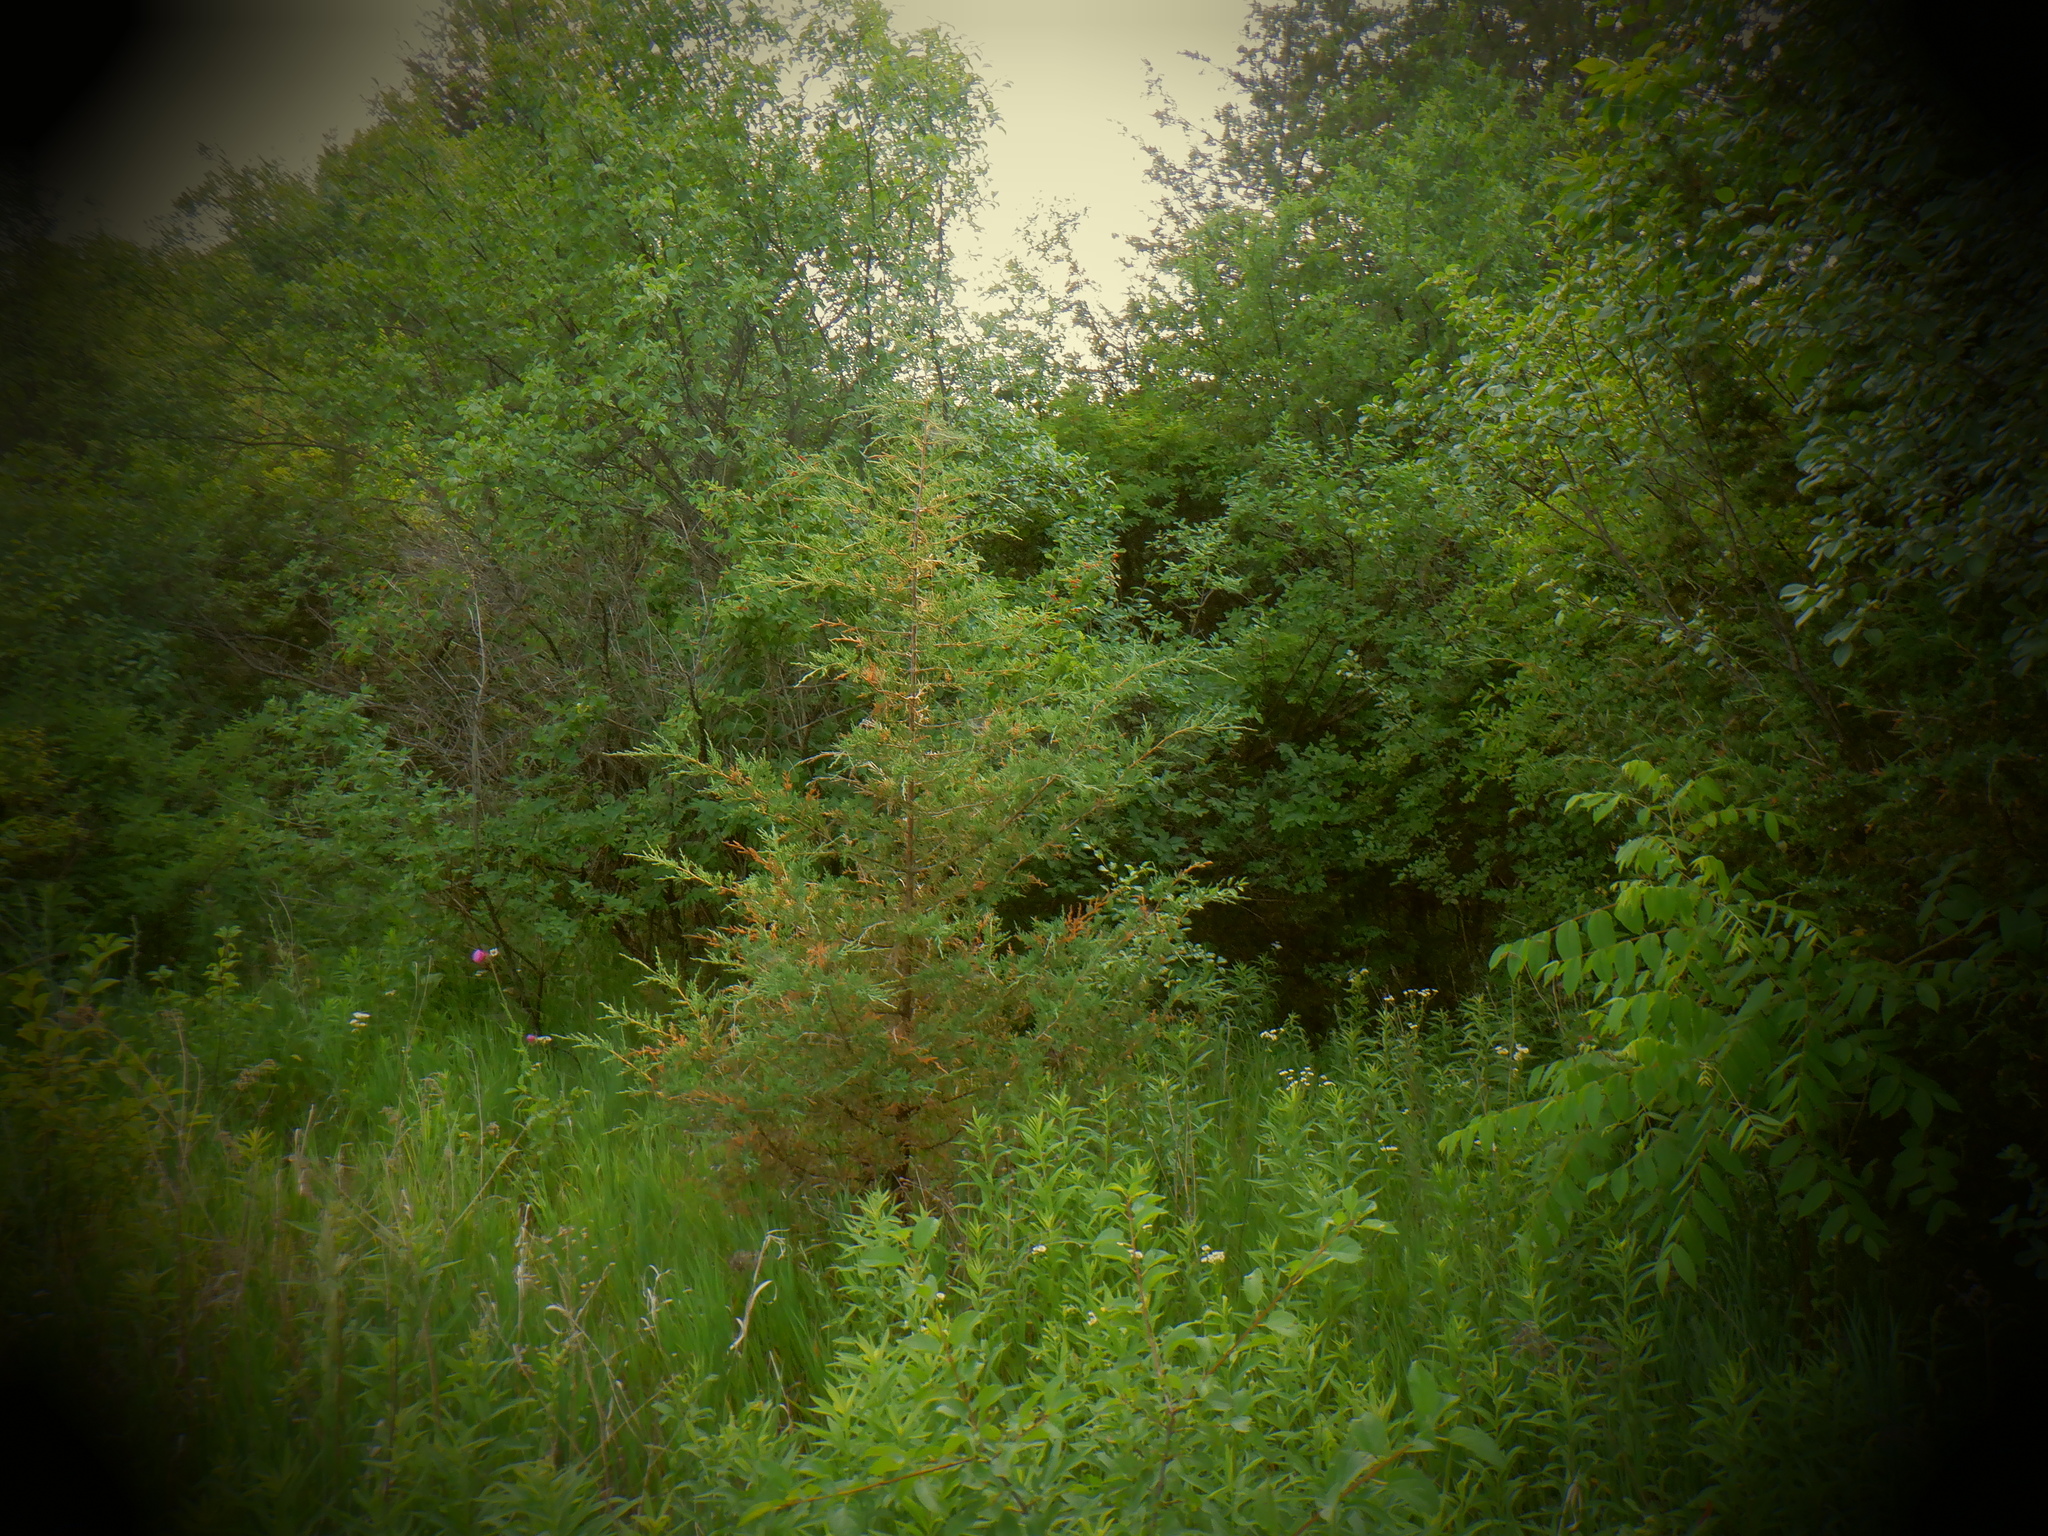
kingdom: Plantae
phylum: Tracheophyta
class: Pinopsida
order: Pinales
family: Cupressaceae
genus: Juniperus
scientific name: Juniperus virginiana
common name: Red juniper
